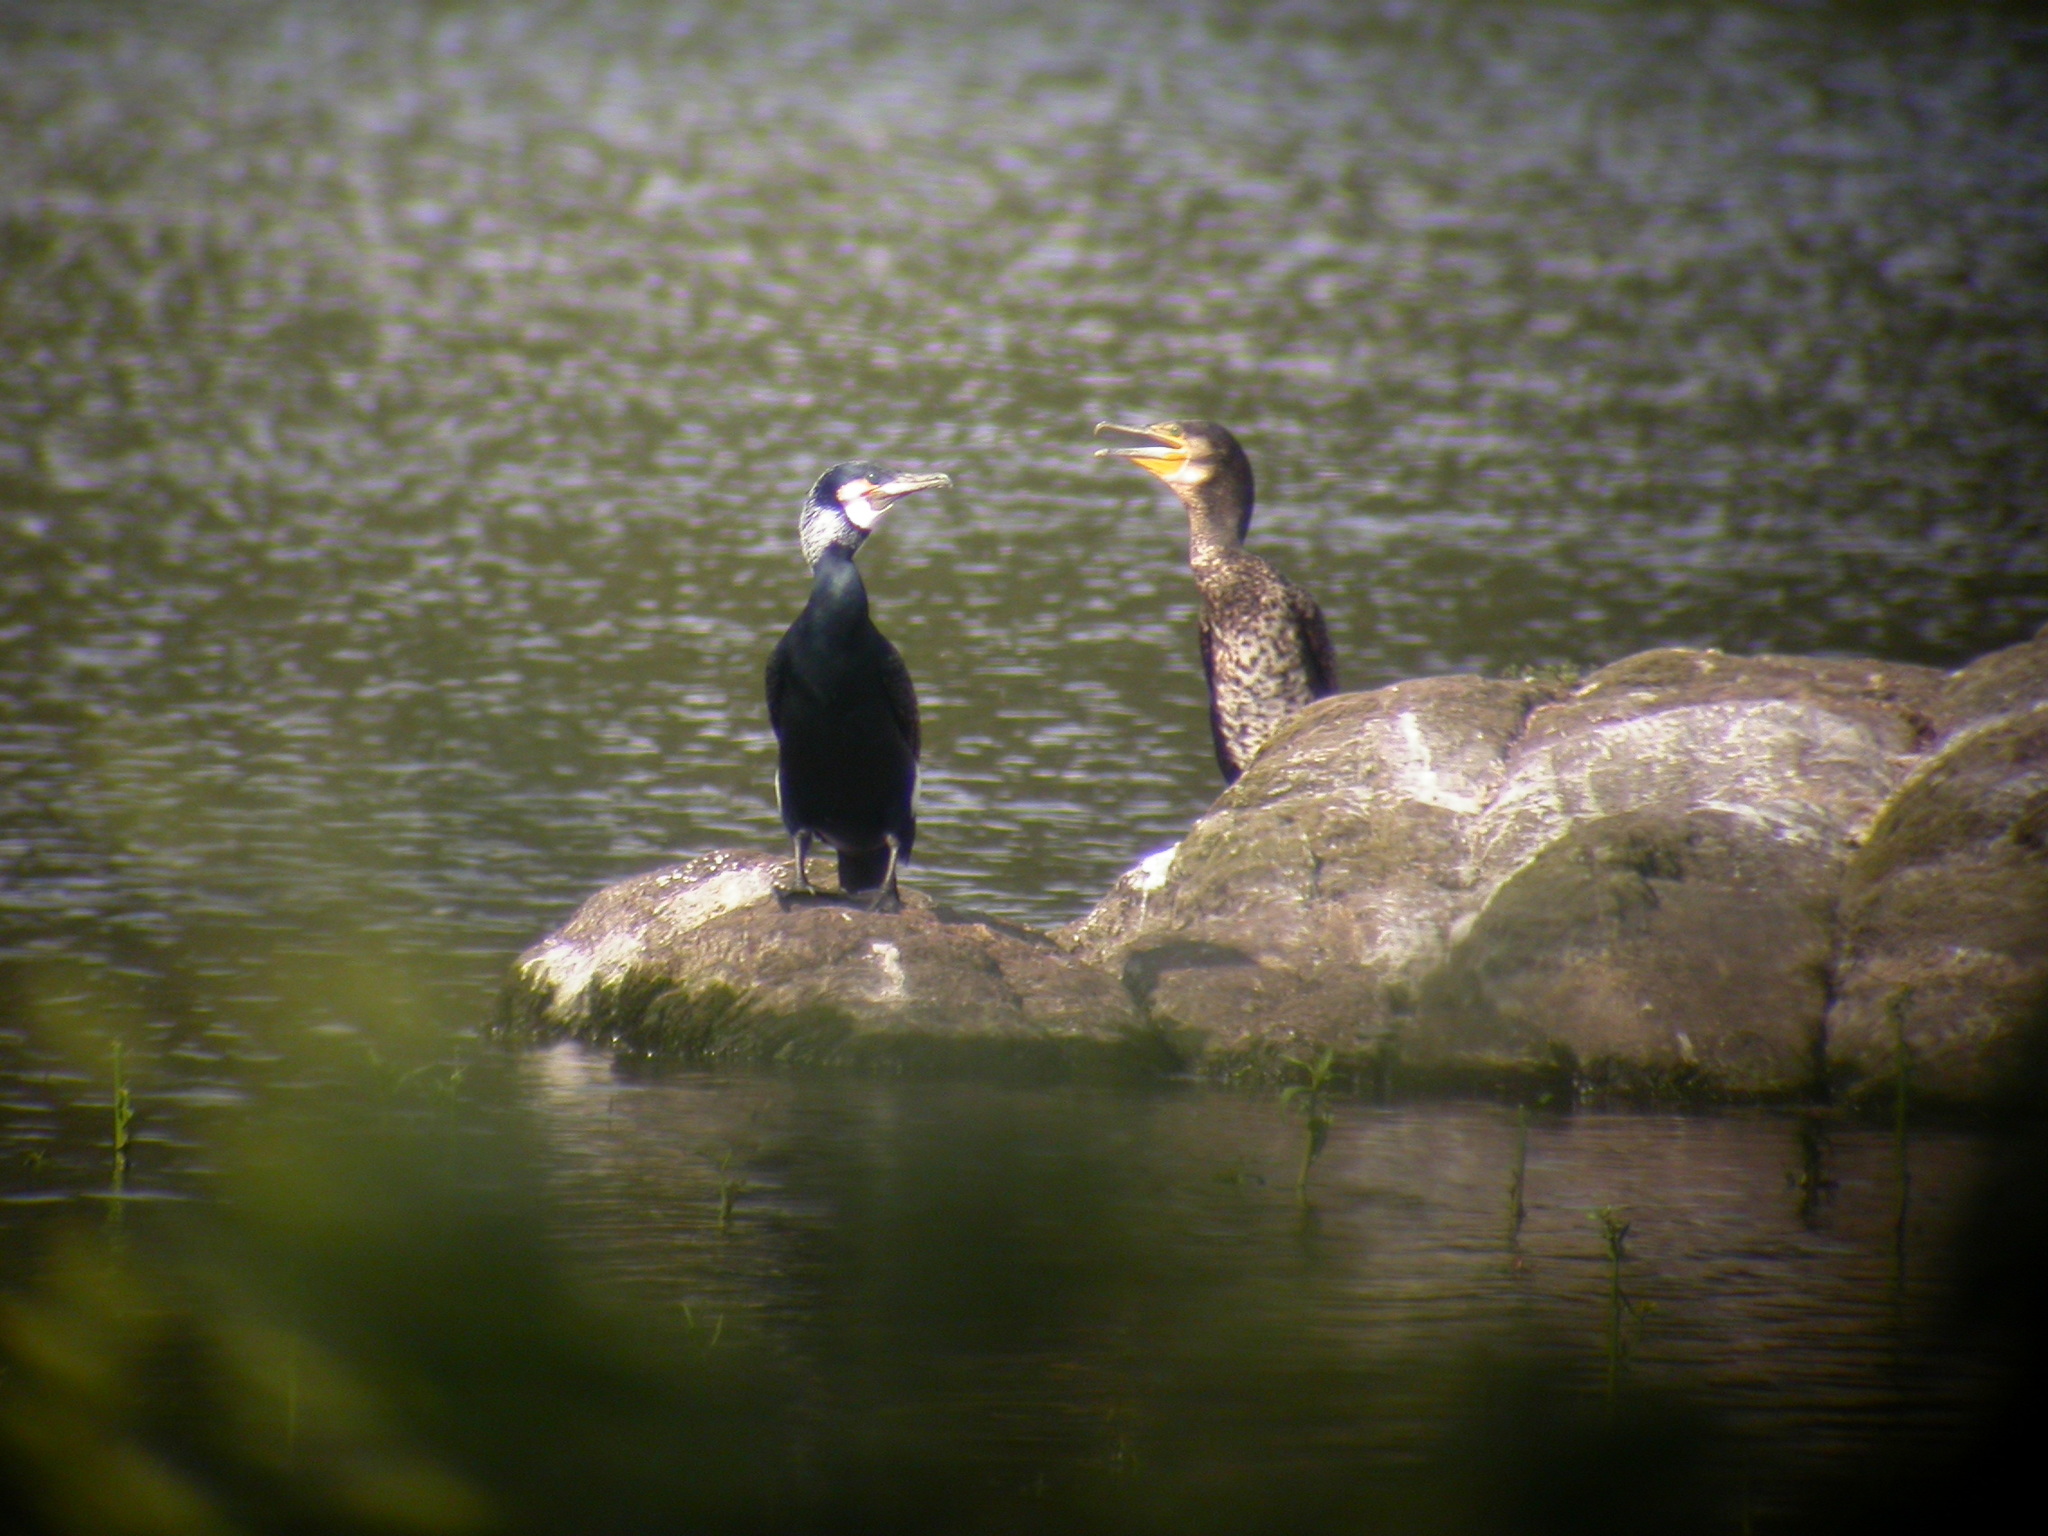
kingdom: Animalia
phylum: Chordata
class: Aves
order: Suliformes
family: Phalacrocoracidae
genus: Phalacrocorax
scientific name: Phalacrocorax carbo
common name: Great cormorant
